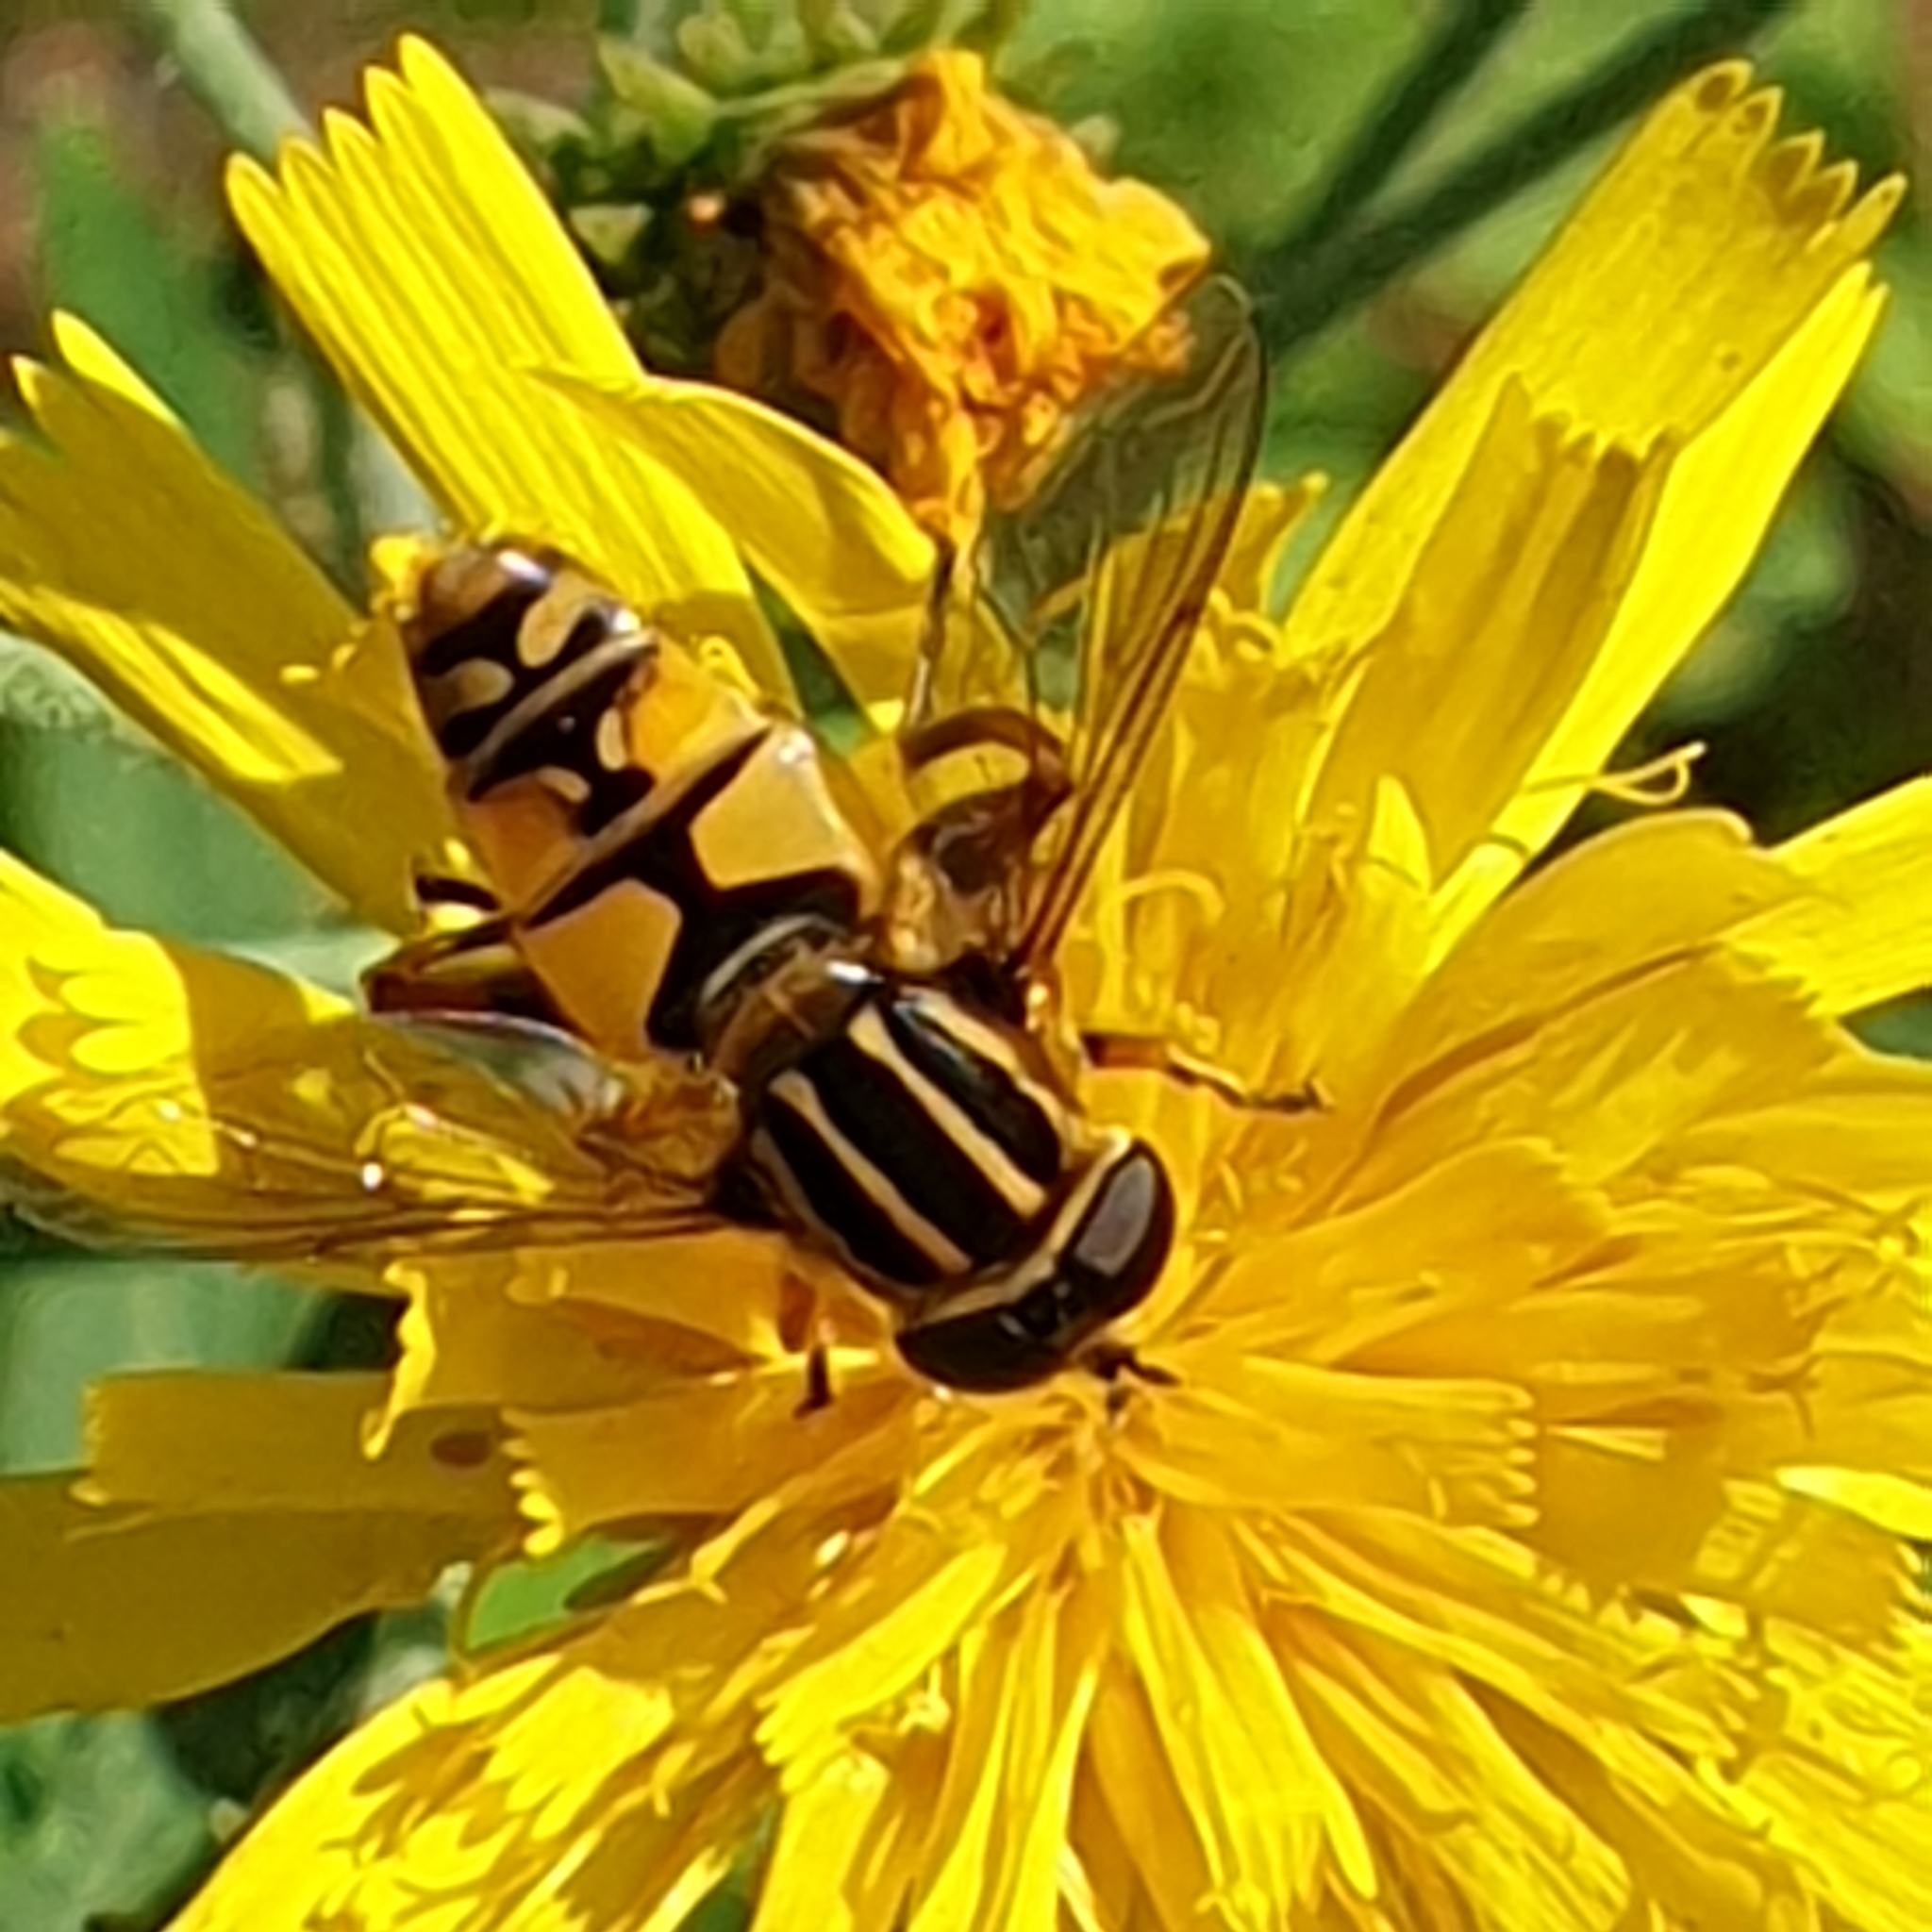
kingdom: Animalia
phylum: Arthropoda
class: Insecta
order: Diptera
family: Syrphidae
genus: Helophilus
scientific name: Helophilus pendulus
